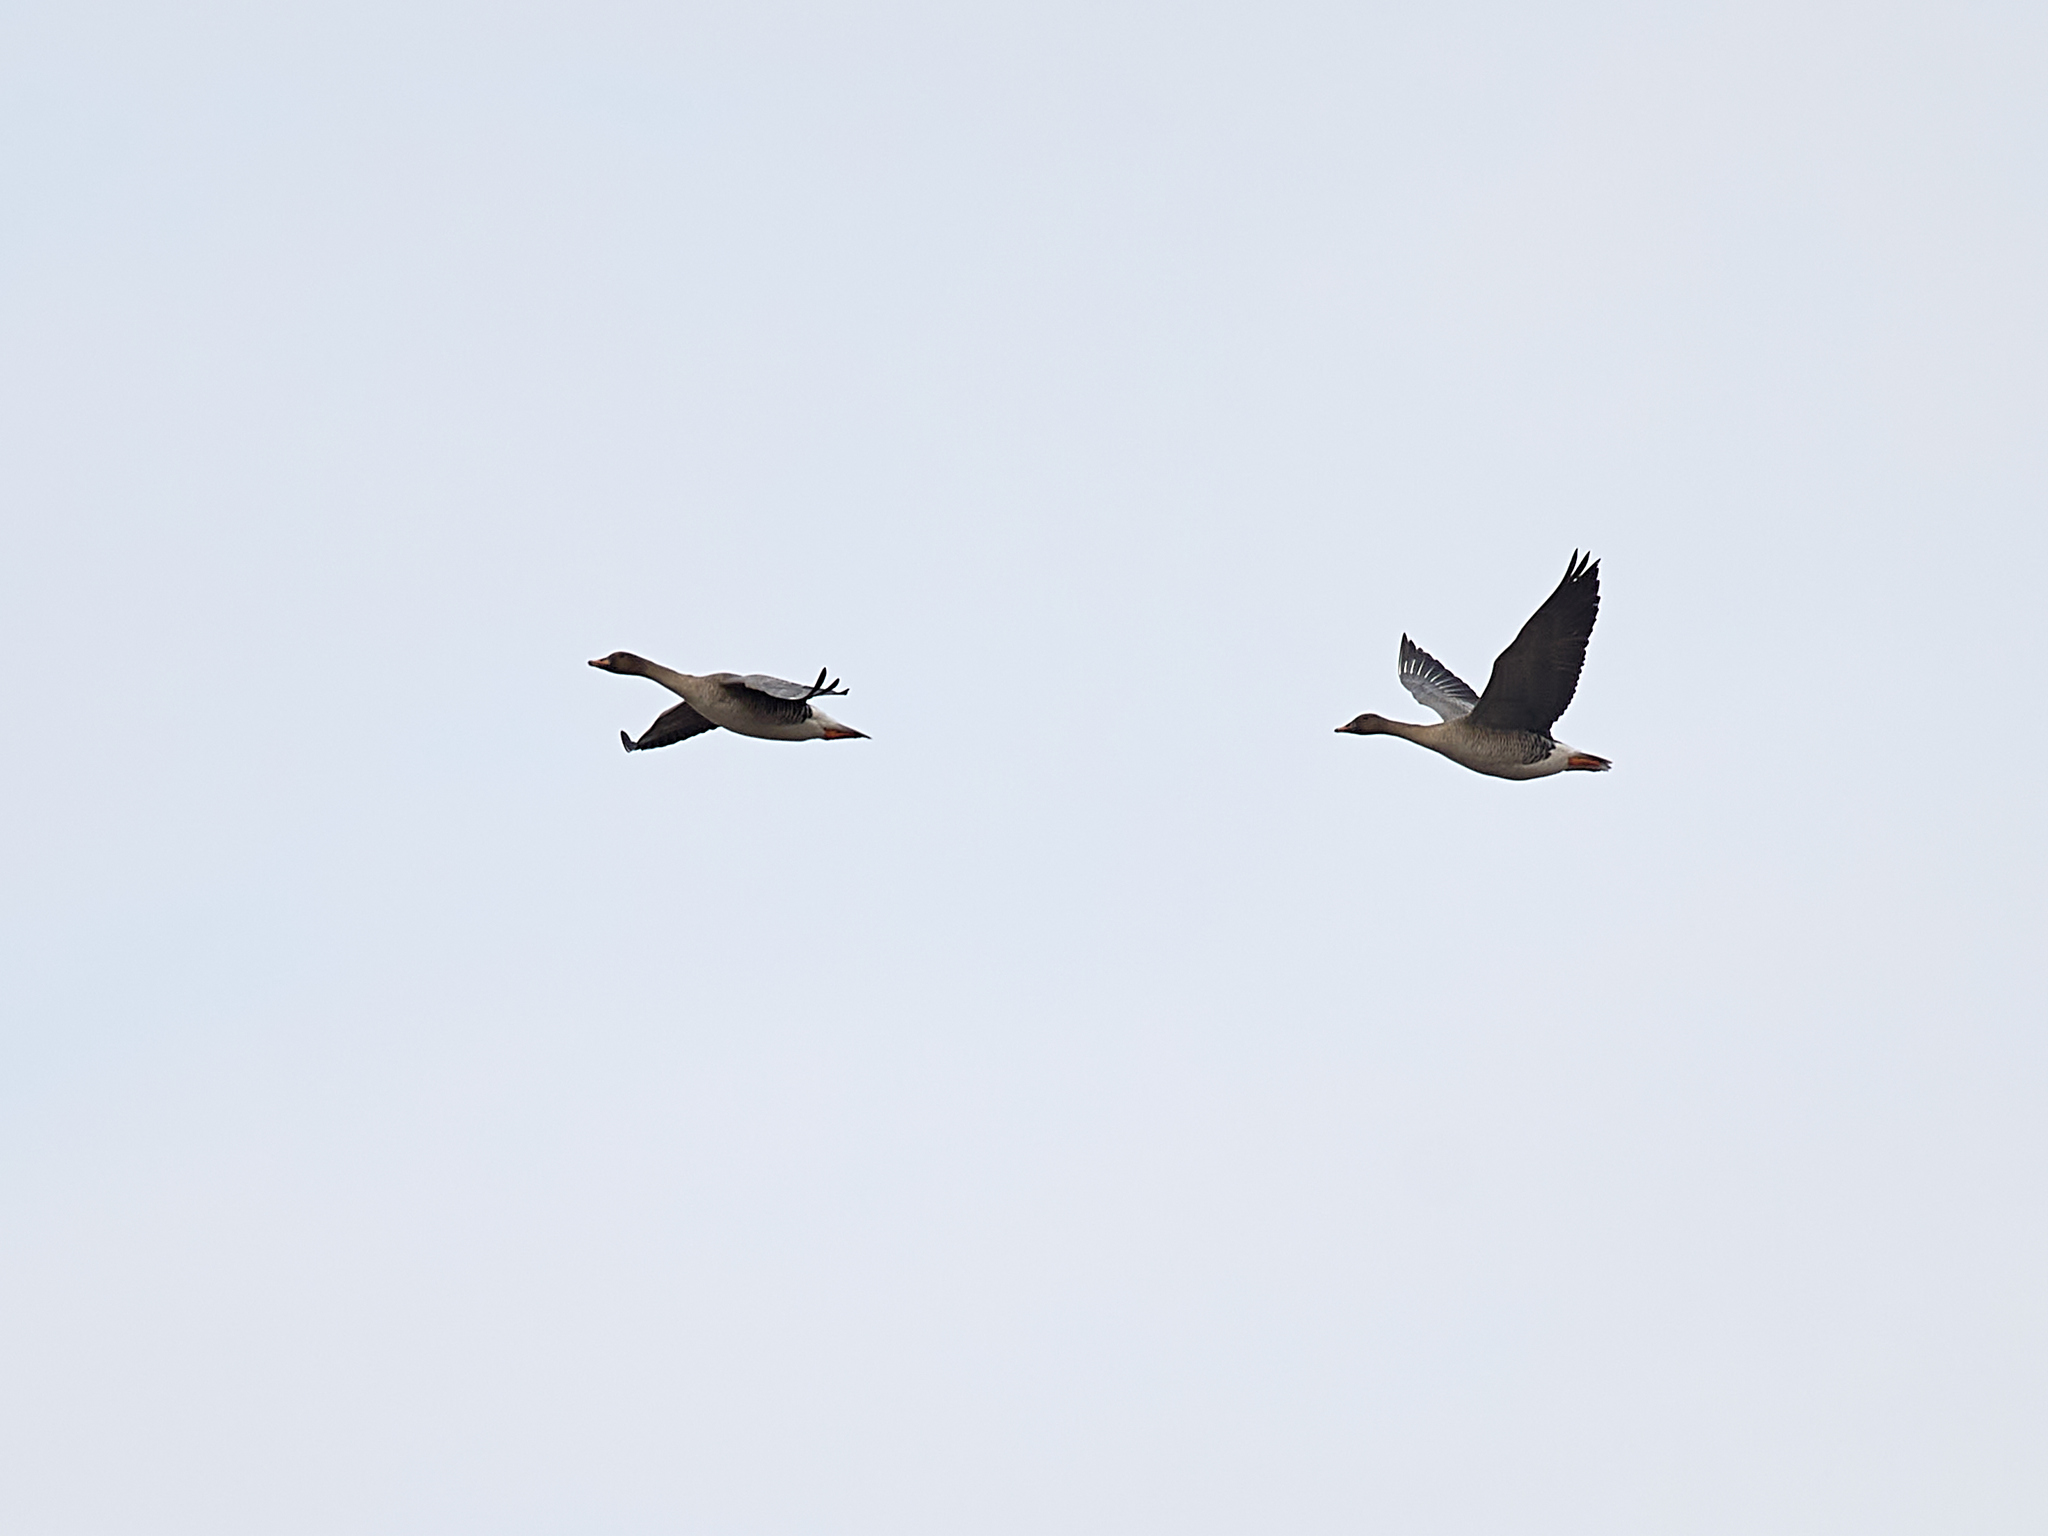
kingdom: Animalia
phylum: Chordata
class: Aves
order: Anseriformes
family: Anatidae
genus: Anser
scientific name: Anser fabalis
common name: Bean goose
